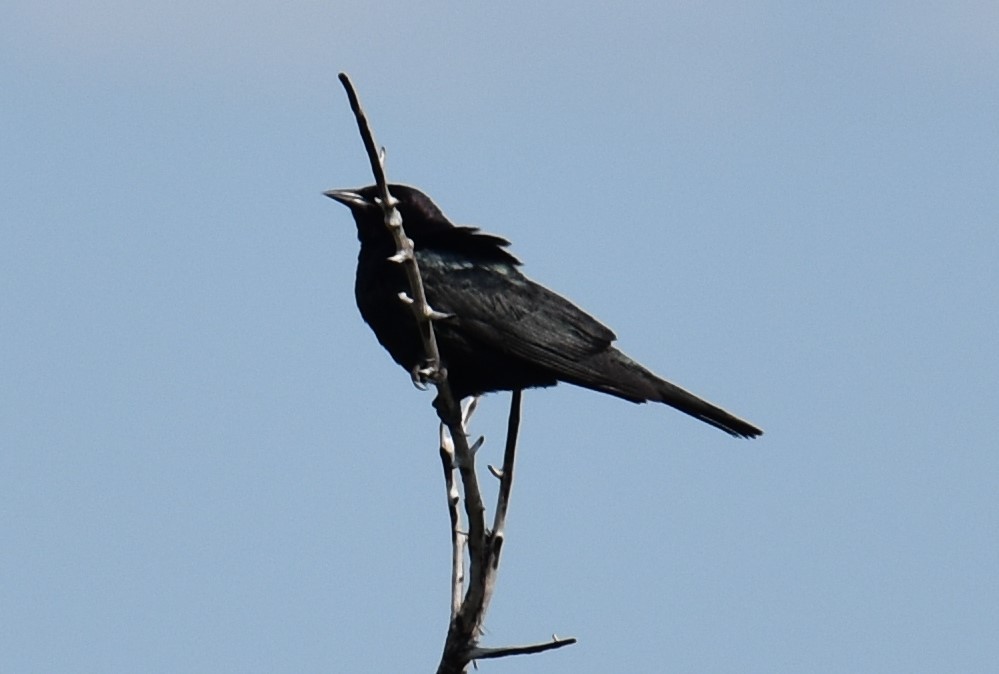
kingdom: Animalia
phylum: Chordata
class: Aves
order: Passeriformes
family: Icteridae
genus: Euphagus
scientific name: Euphagus cyanocephalus
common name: Brewer's blackbird
